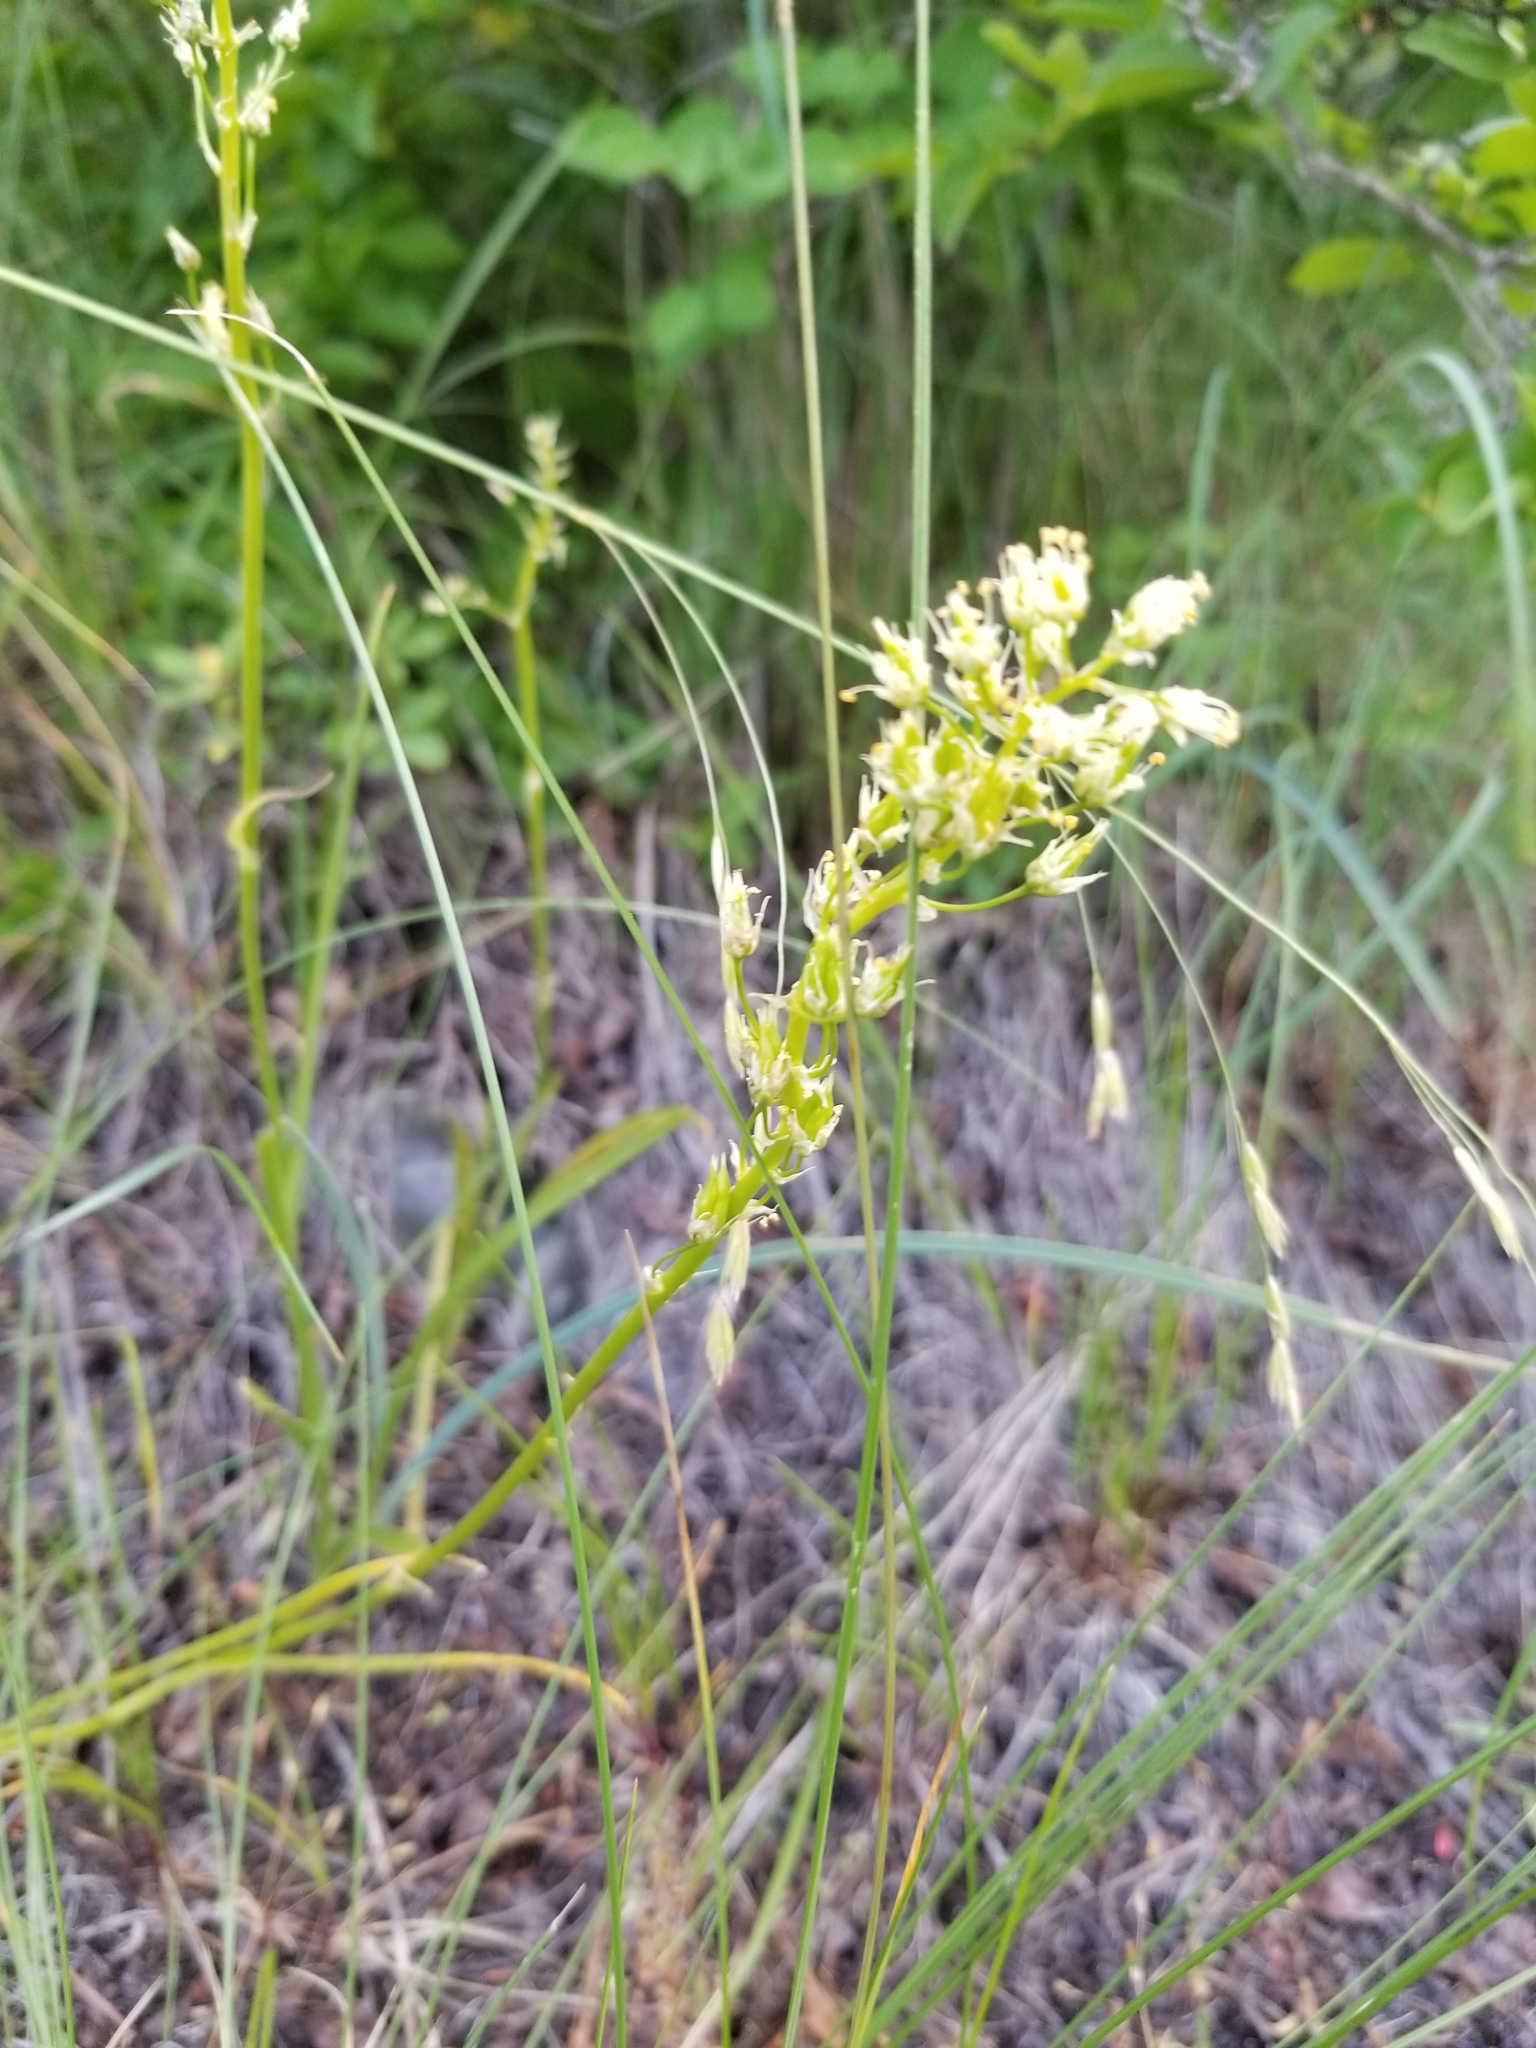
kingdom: Plantae
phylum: Tracheophyta
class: Liliopsida
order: Liliales
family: Melanthiaceae
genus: Toxicoscordion
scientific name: Toxicoscordion venenosum
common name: Meadow death camas
